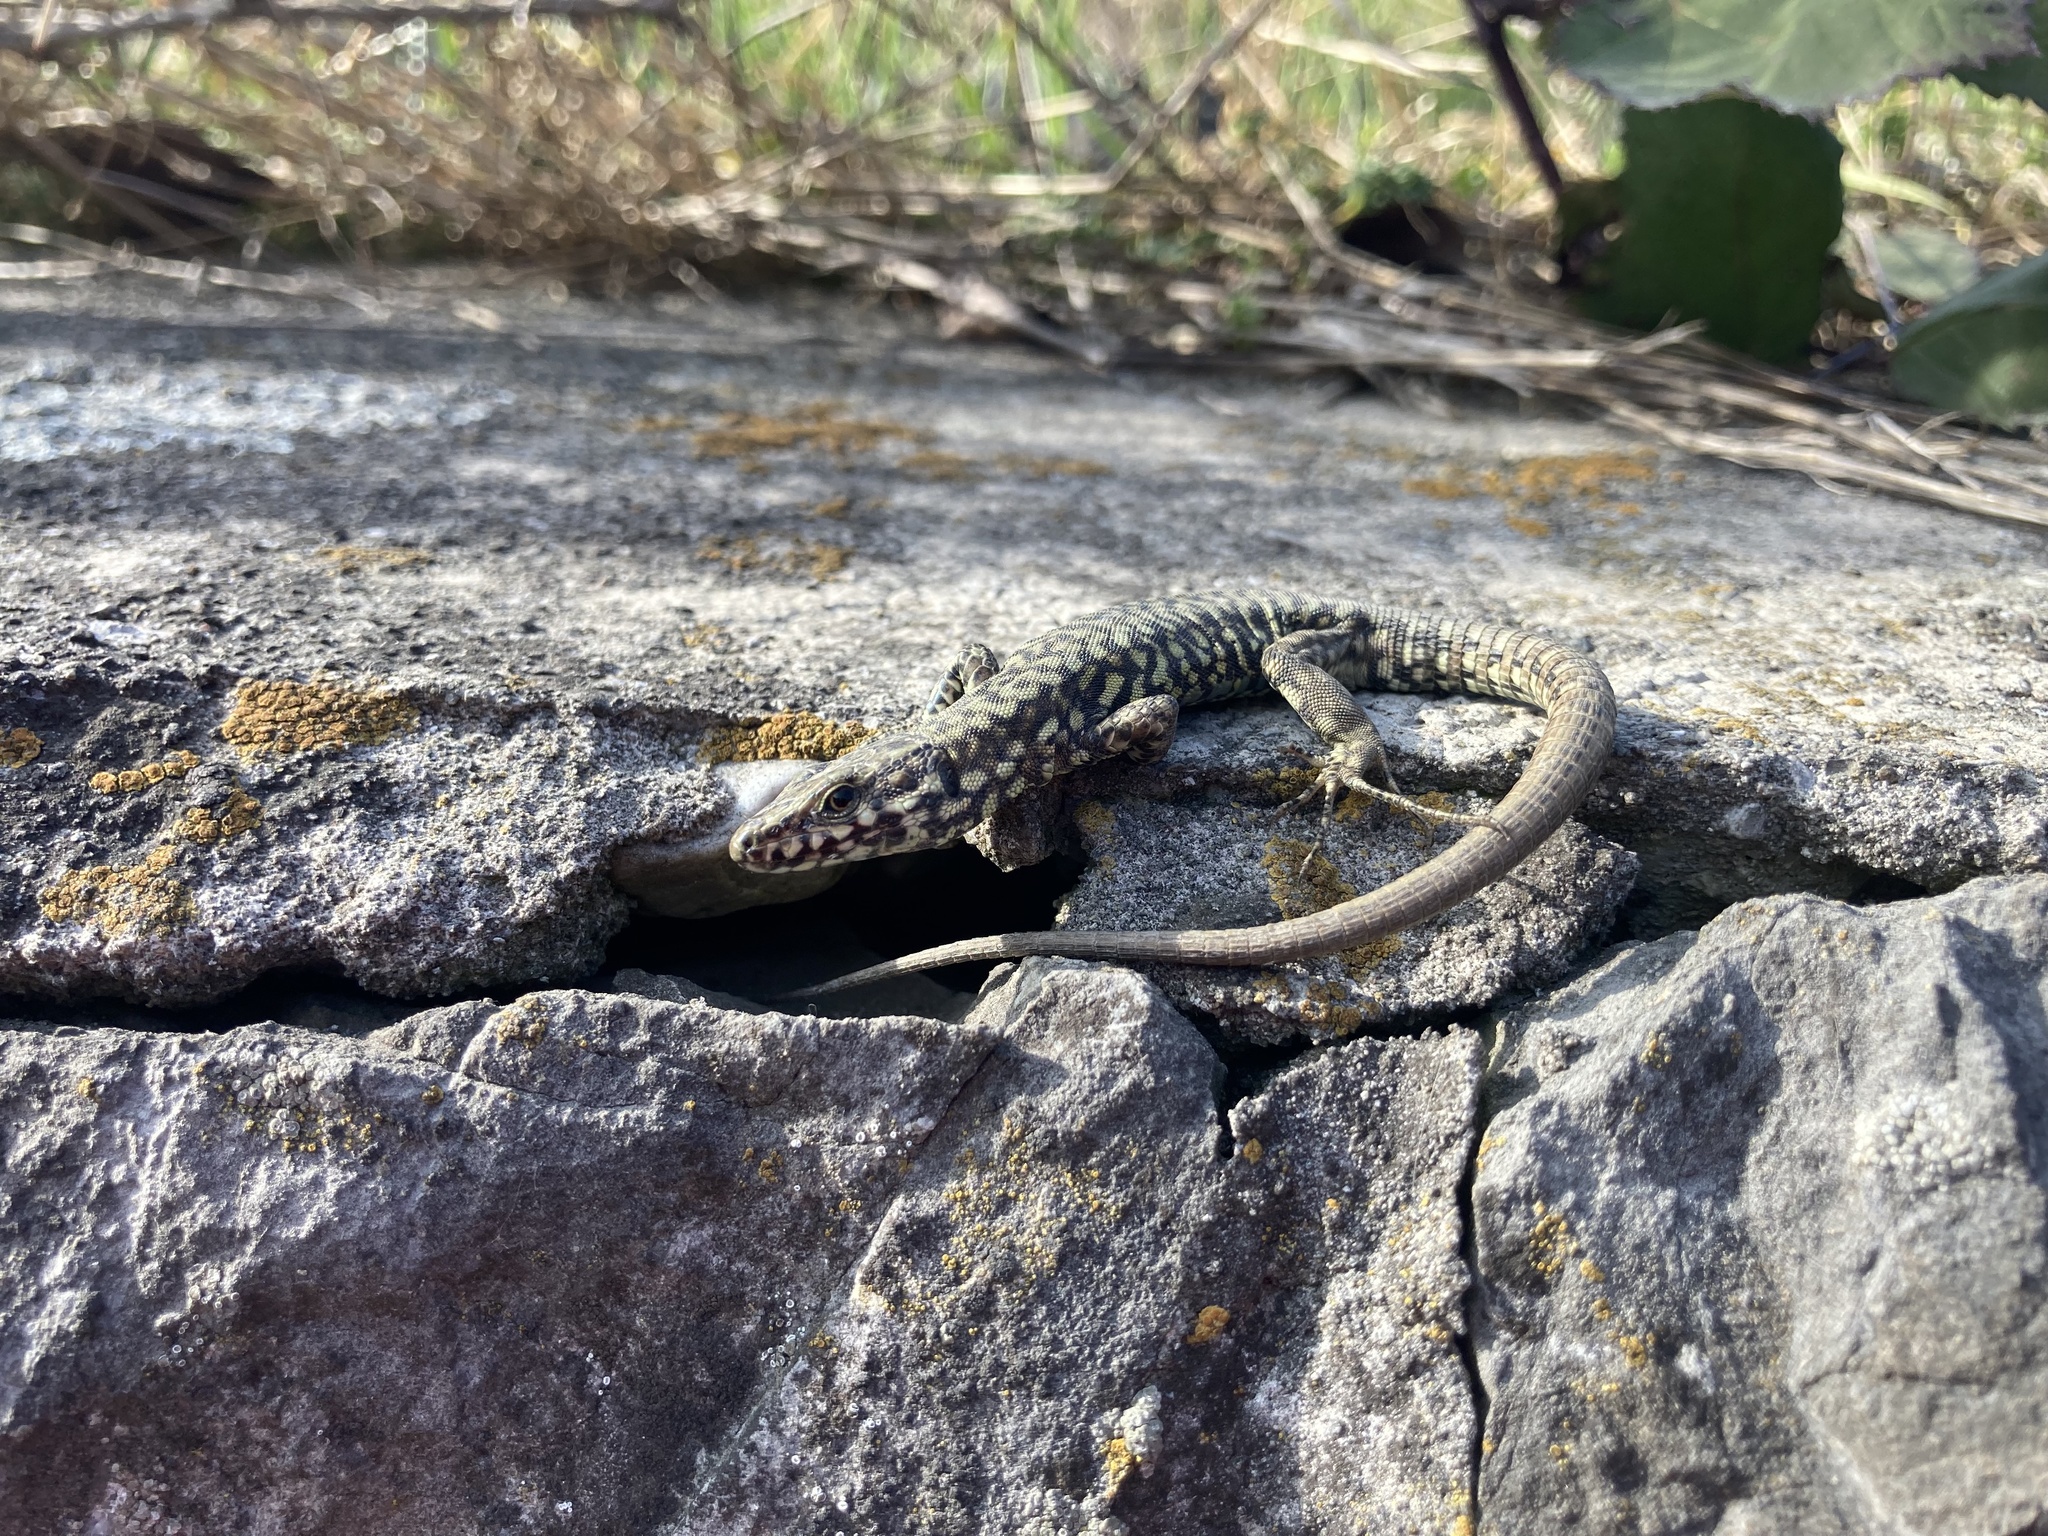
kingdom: Animalia
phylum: Chordata
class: Squamata
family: Lacertidae
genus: Podarcis
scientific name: Podarcis muralis
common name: Common wall lizard
